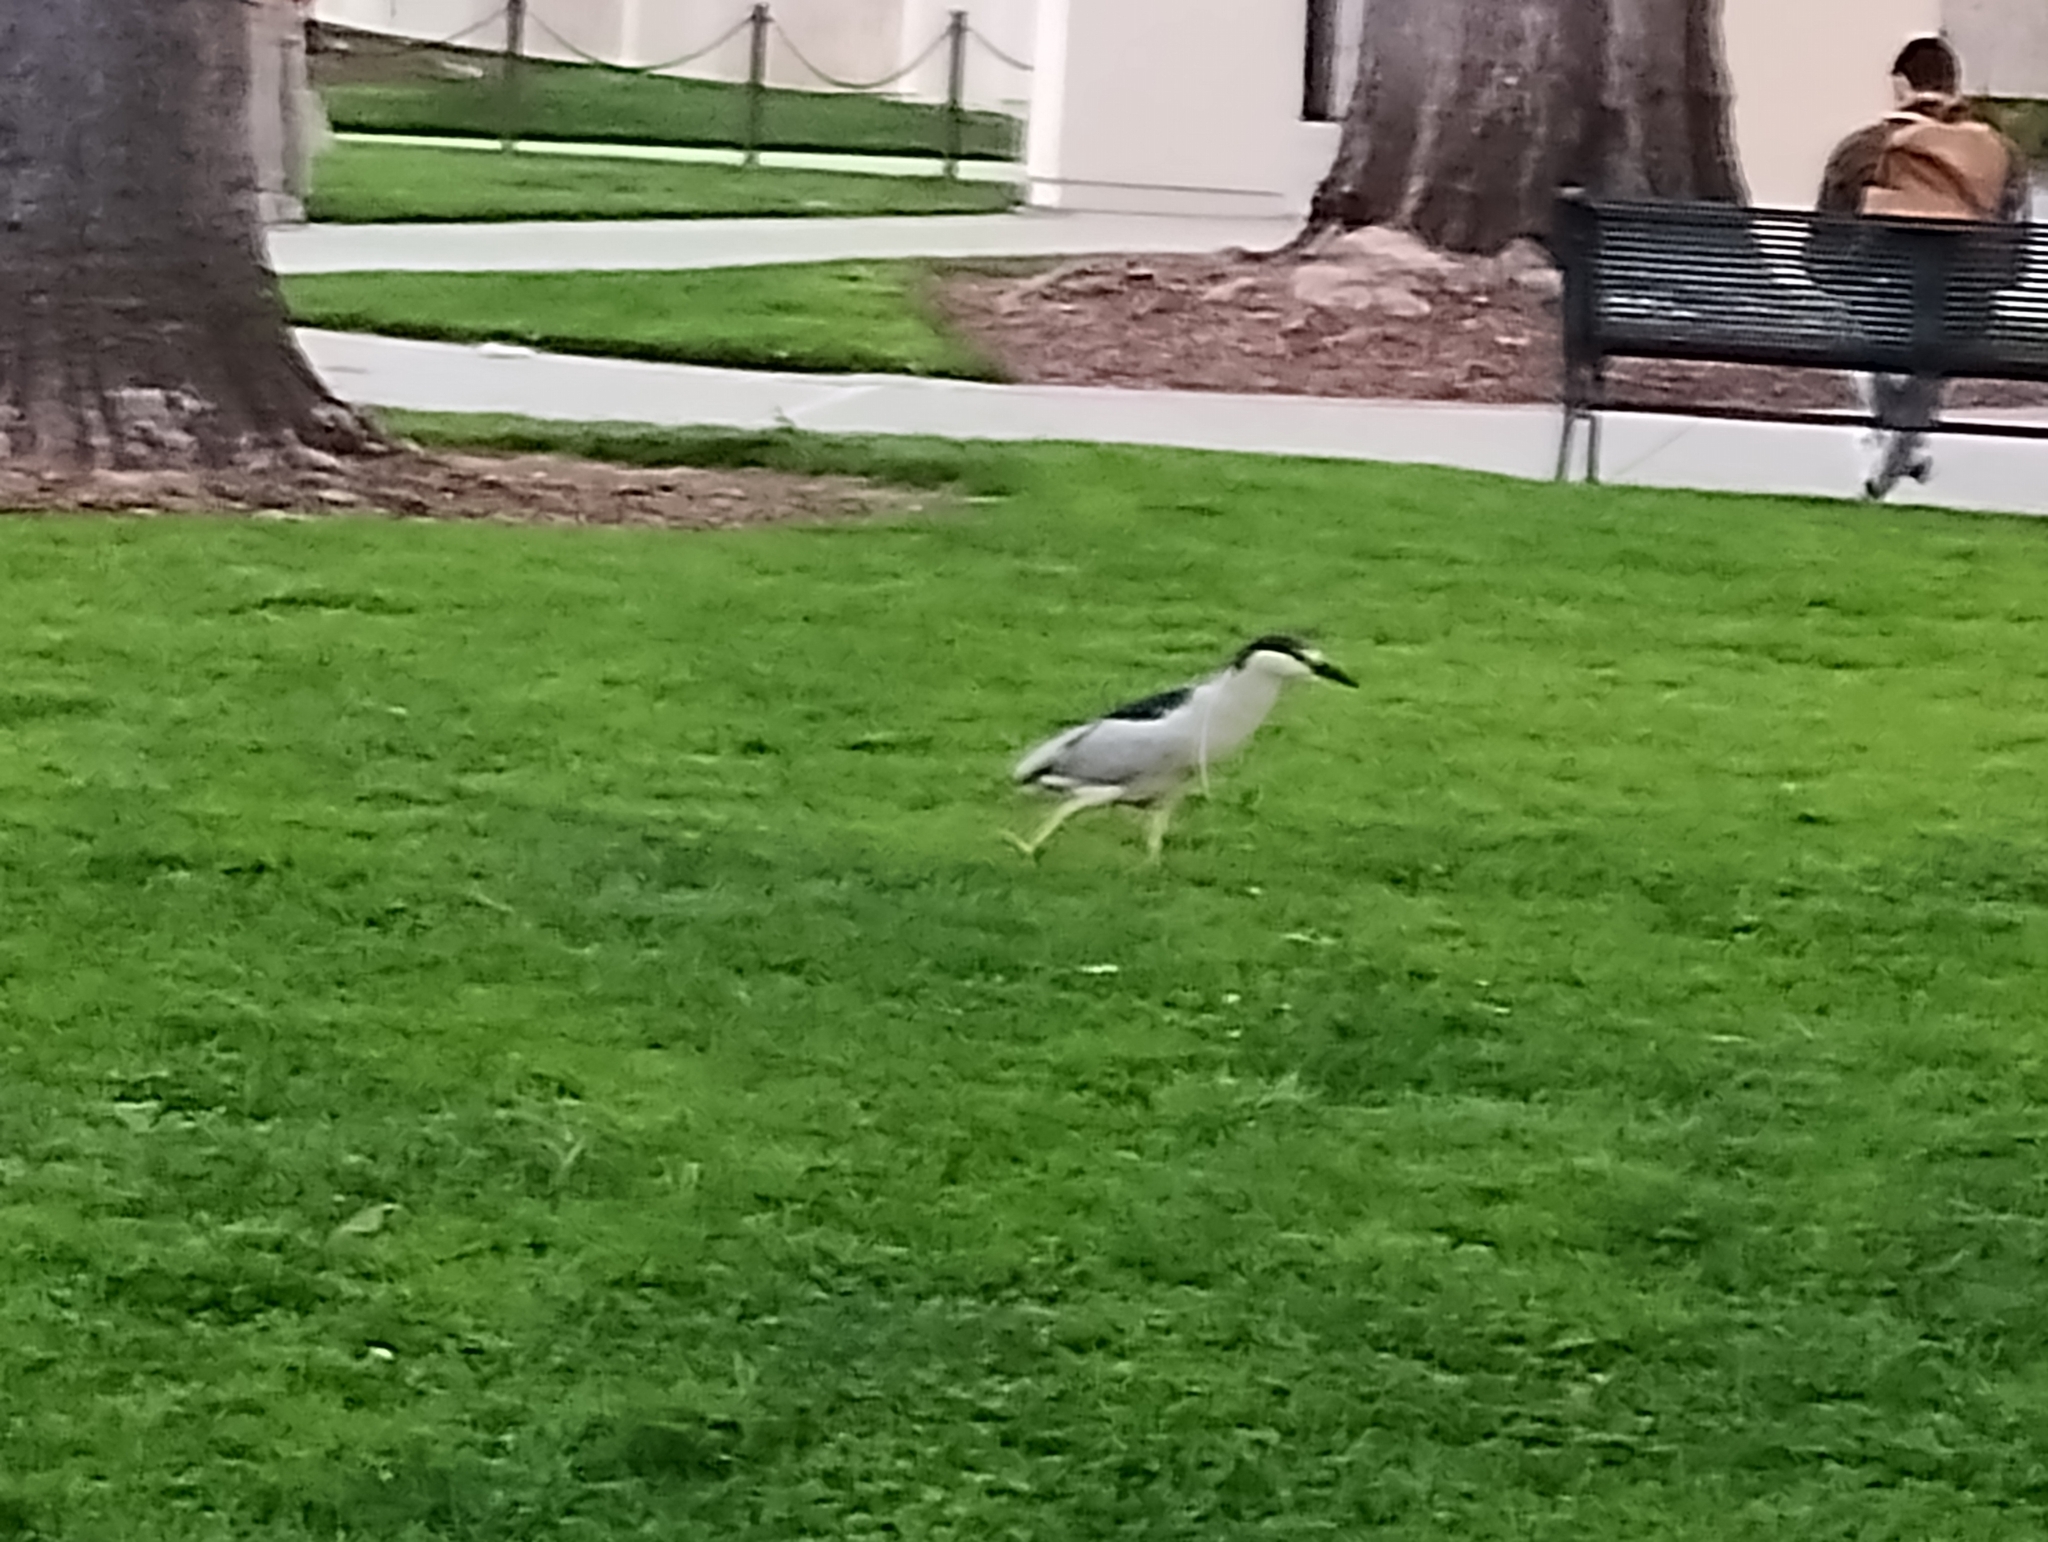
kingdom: Animalia
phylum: Chordata
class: Aves
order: Pelecaniformes
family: Ardeidae
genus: Nycticorax
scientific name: Nycticorax nycticorax
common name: Black-crowned night heron
